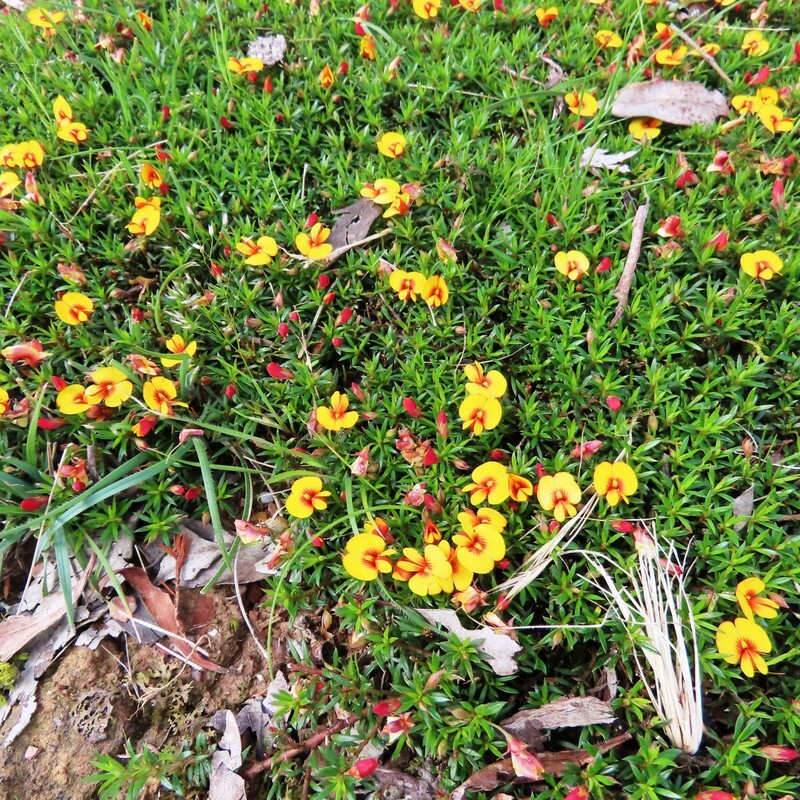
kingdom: Plantae
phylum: Tracheophyta
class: Magnoliopsida
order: Fabales
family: Fabaceae
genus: Pultenaea
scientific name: Pultenaea pedunculata
